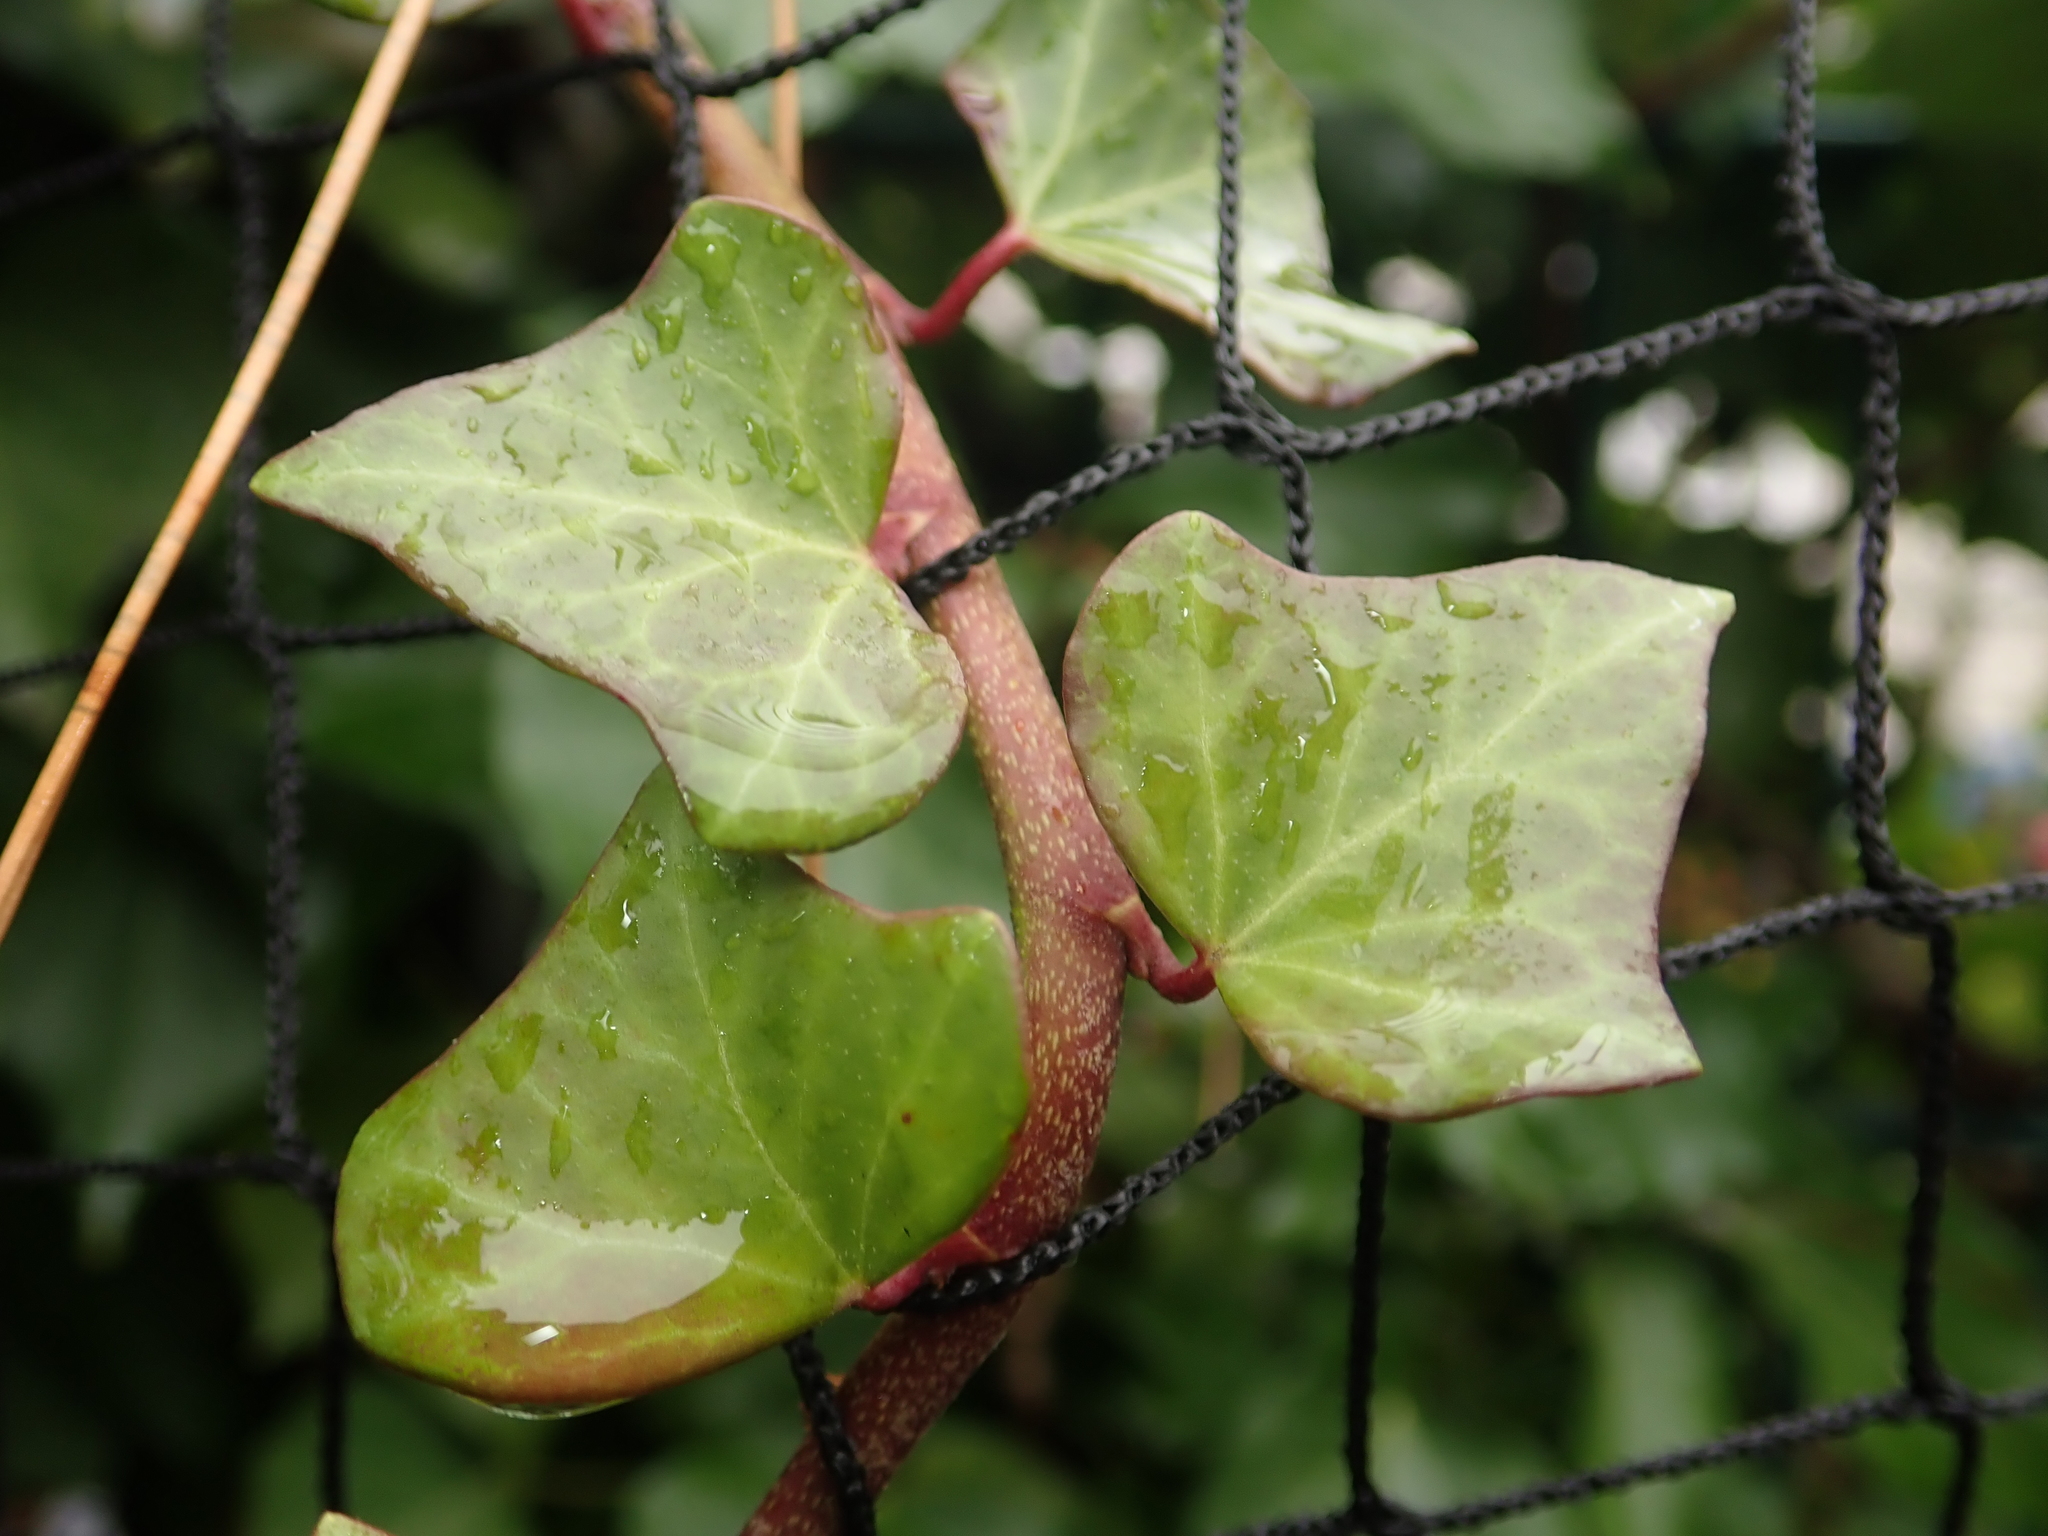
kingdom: Plantae
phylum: Tracheophyta
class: Magnoliopsida
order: Apiales
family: Araliaceae
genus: Hedera
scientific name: Hedera helix
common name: Ivy
